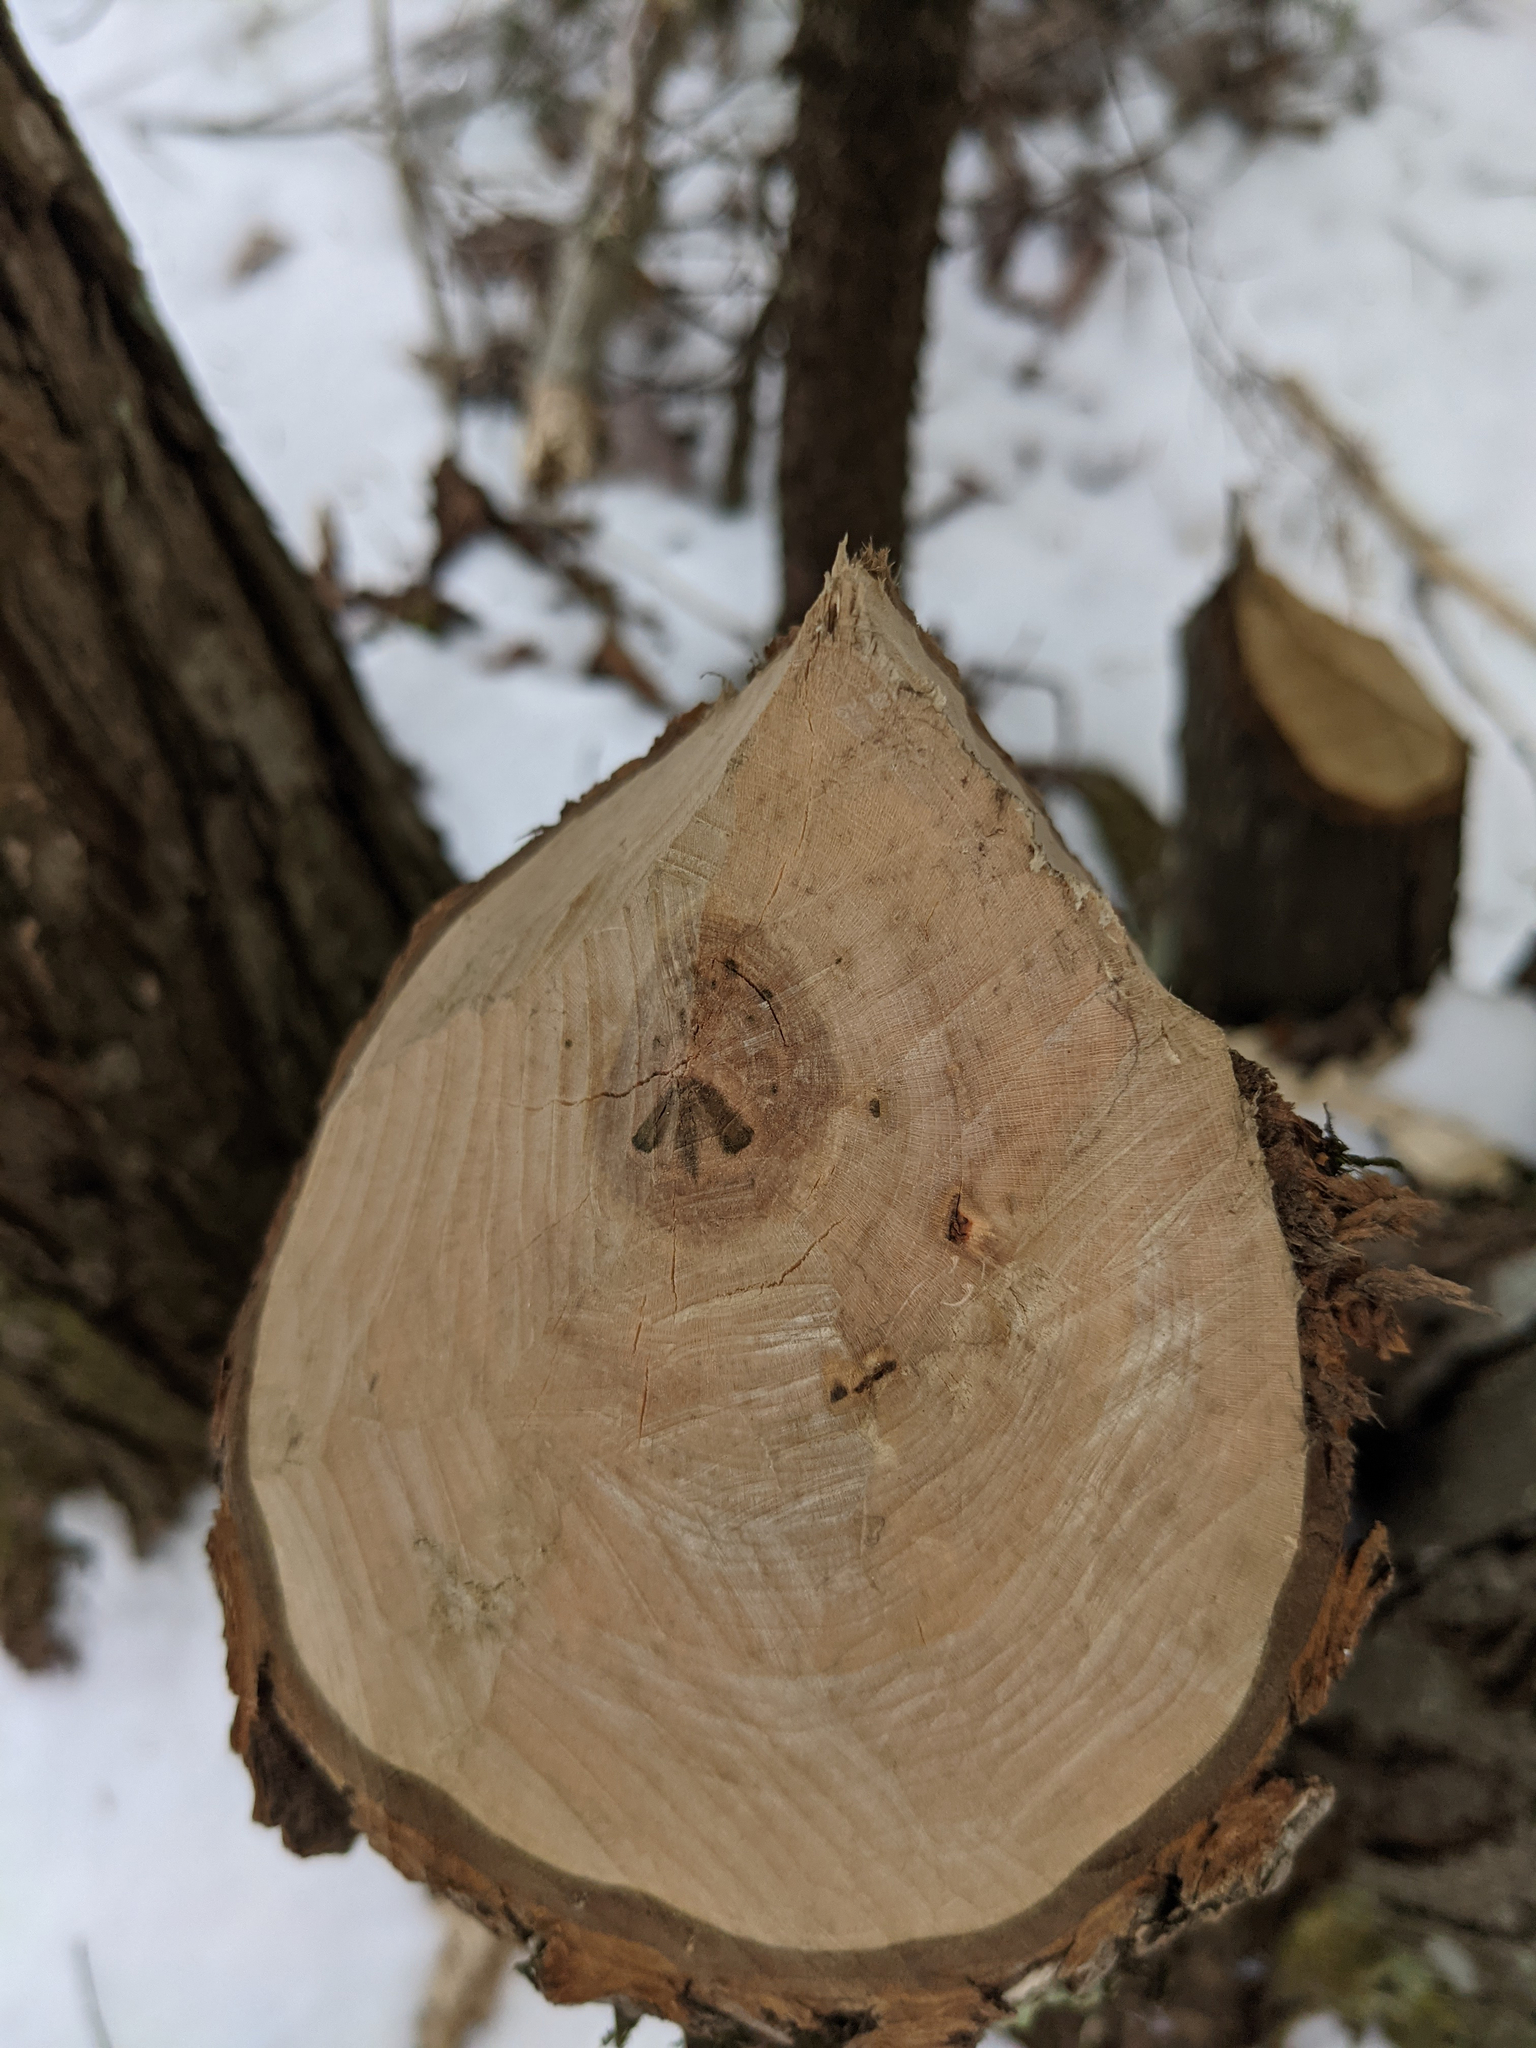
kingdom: Animalia
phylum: Chordata
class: Mammalia
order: Rodentia
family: Castoridae
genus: Castor
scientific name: Castor canadensis
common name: American beaver
